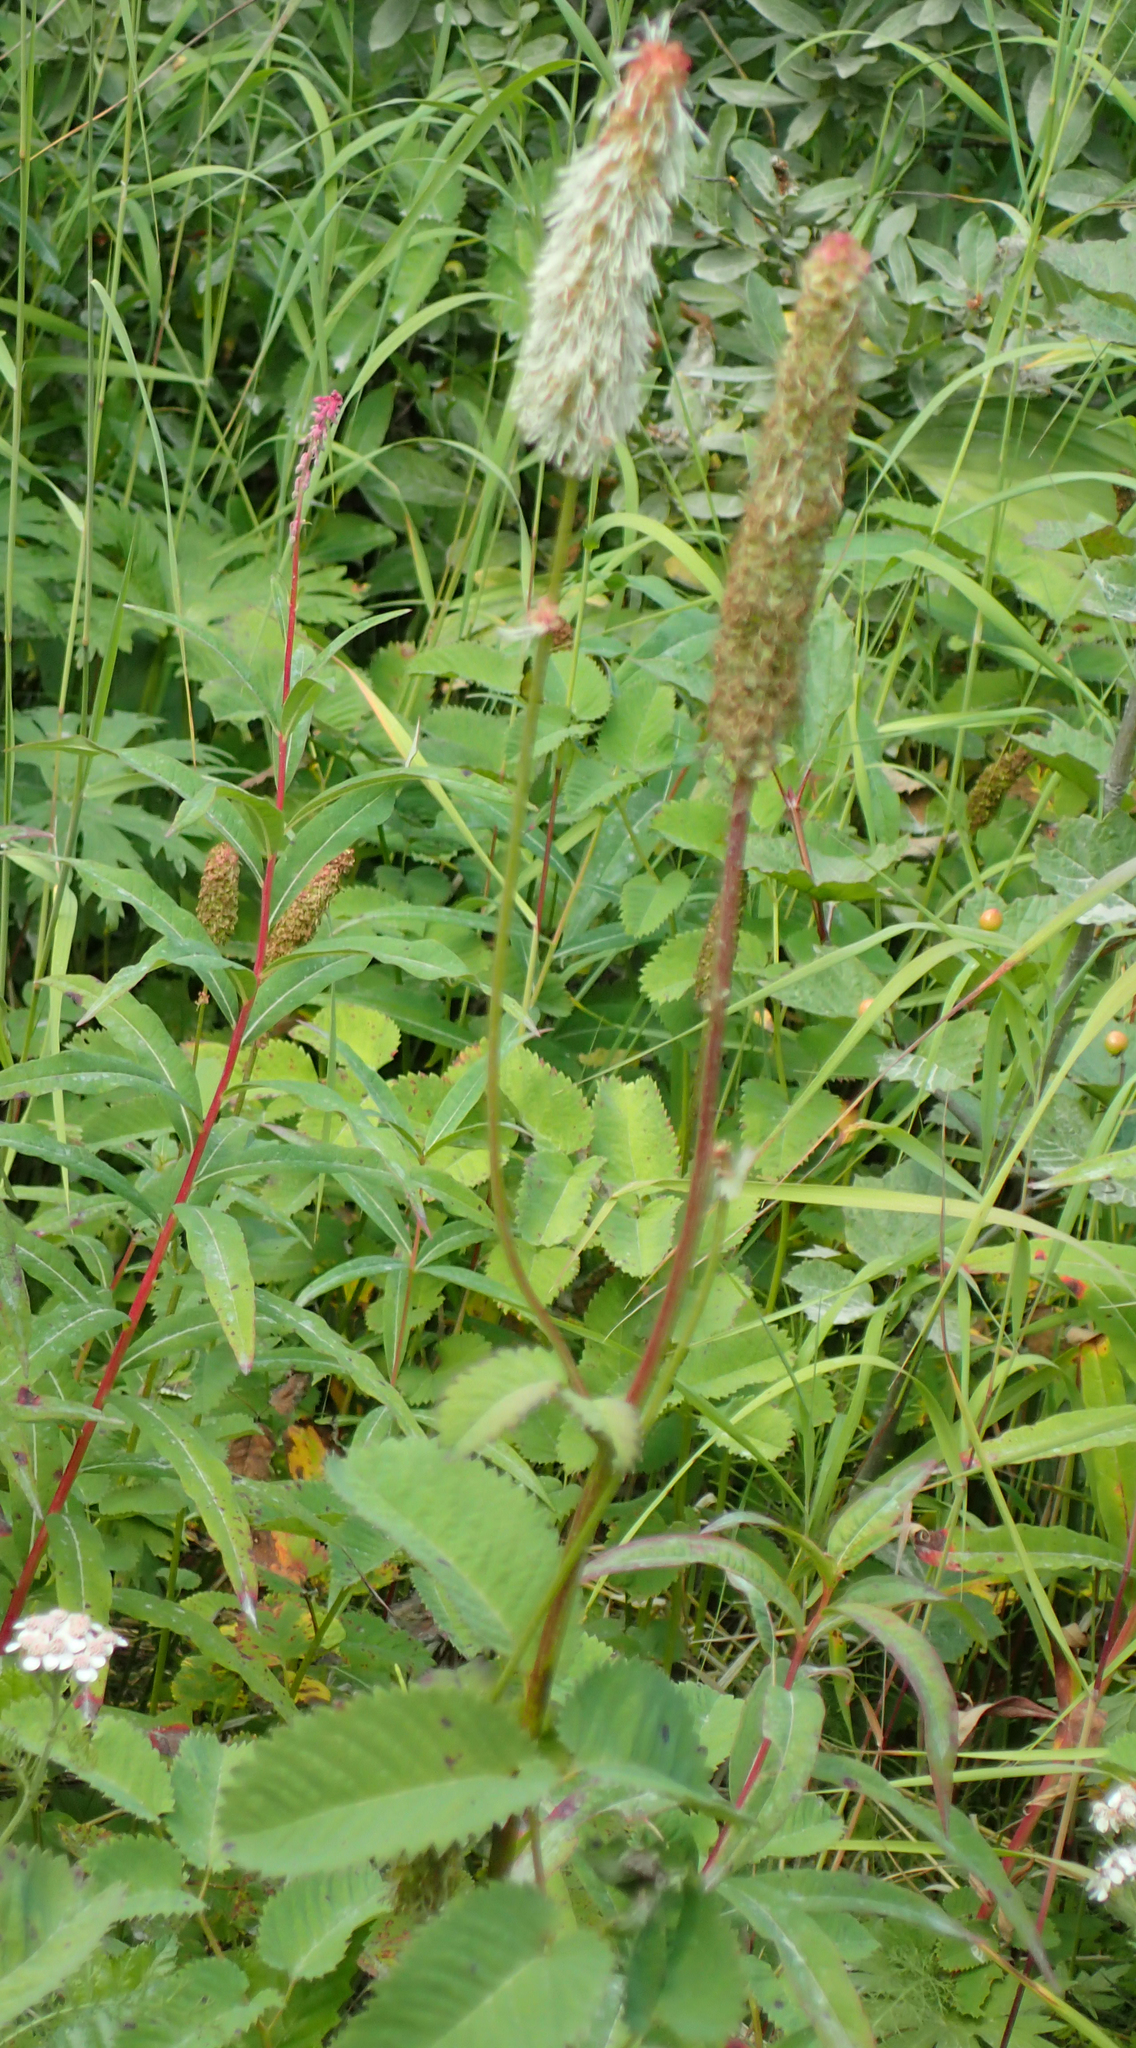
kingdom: Plantae
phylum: Tracheophyta
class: Magnoliopsida
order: Rosales
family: Rosaceae
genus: Sanguisorba
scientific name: Sanguisorba stipulata
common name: Sitka burnet
